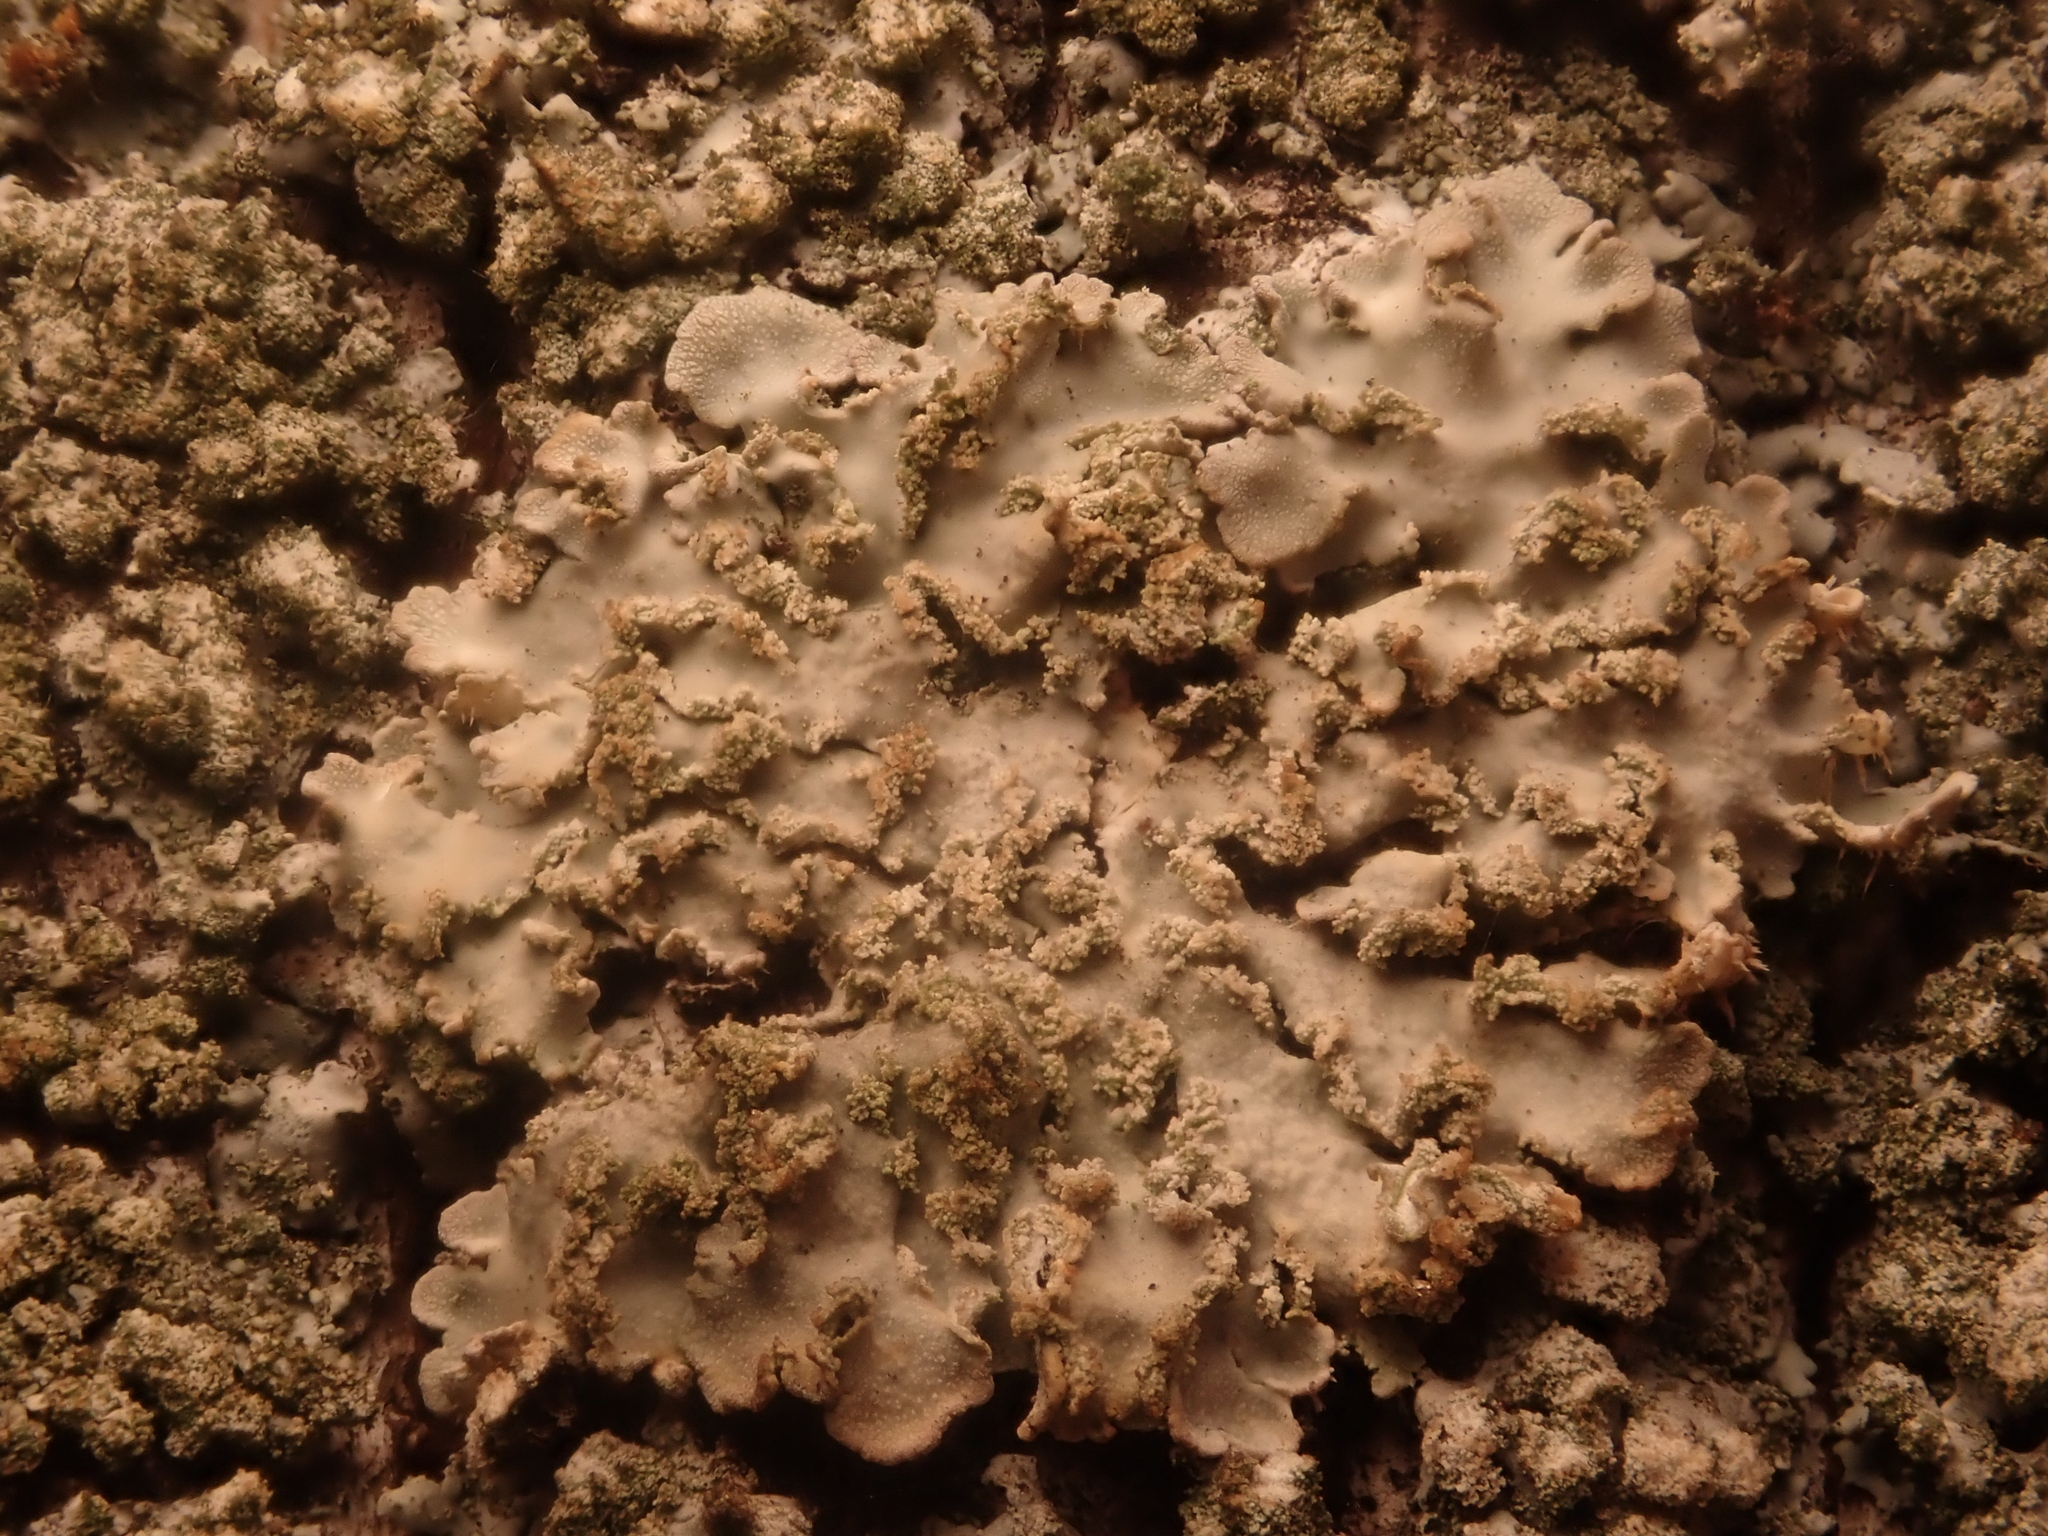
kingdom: Fungi
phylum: Ascomycota
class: Lecanoromycetes
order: Caliciales
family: Physciaceae
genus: Poeltonia
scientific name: Poeltonia grisea
